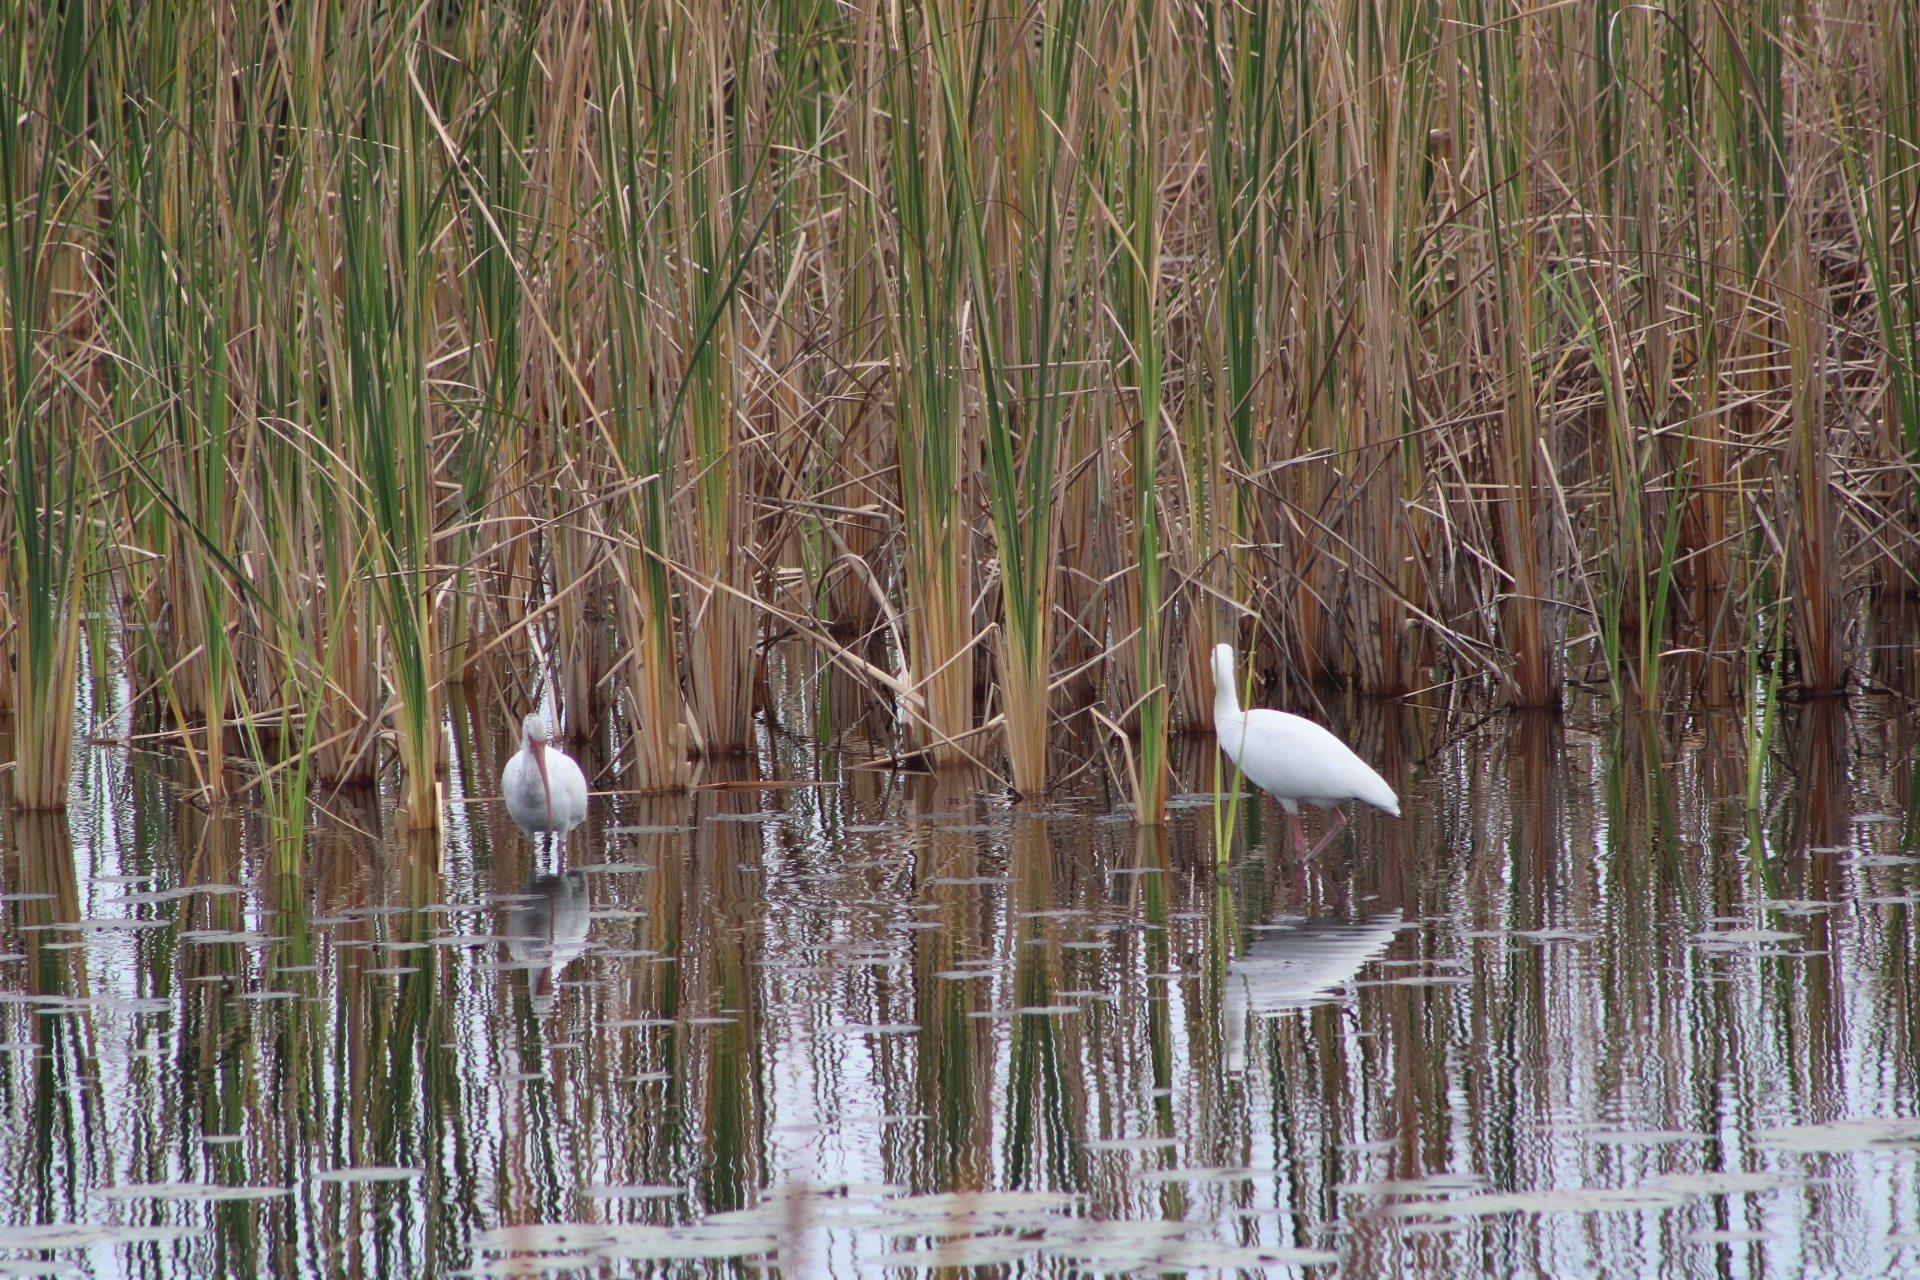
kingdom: Animalia
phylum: Chordata
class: Aves
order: Pelecaniformes
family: Threskiornithidae
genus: Eudocimus
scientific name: Eudocimus albus
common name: White ibis
